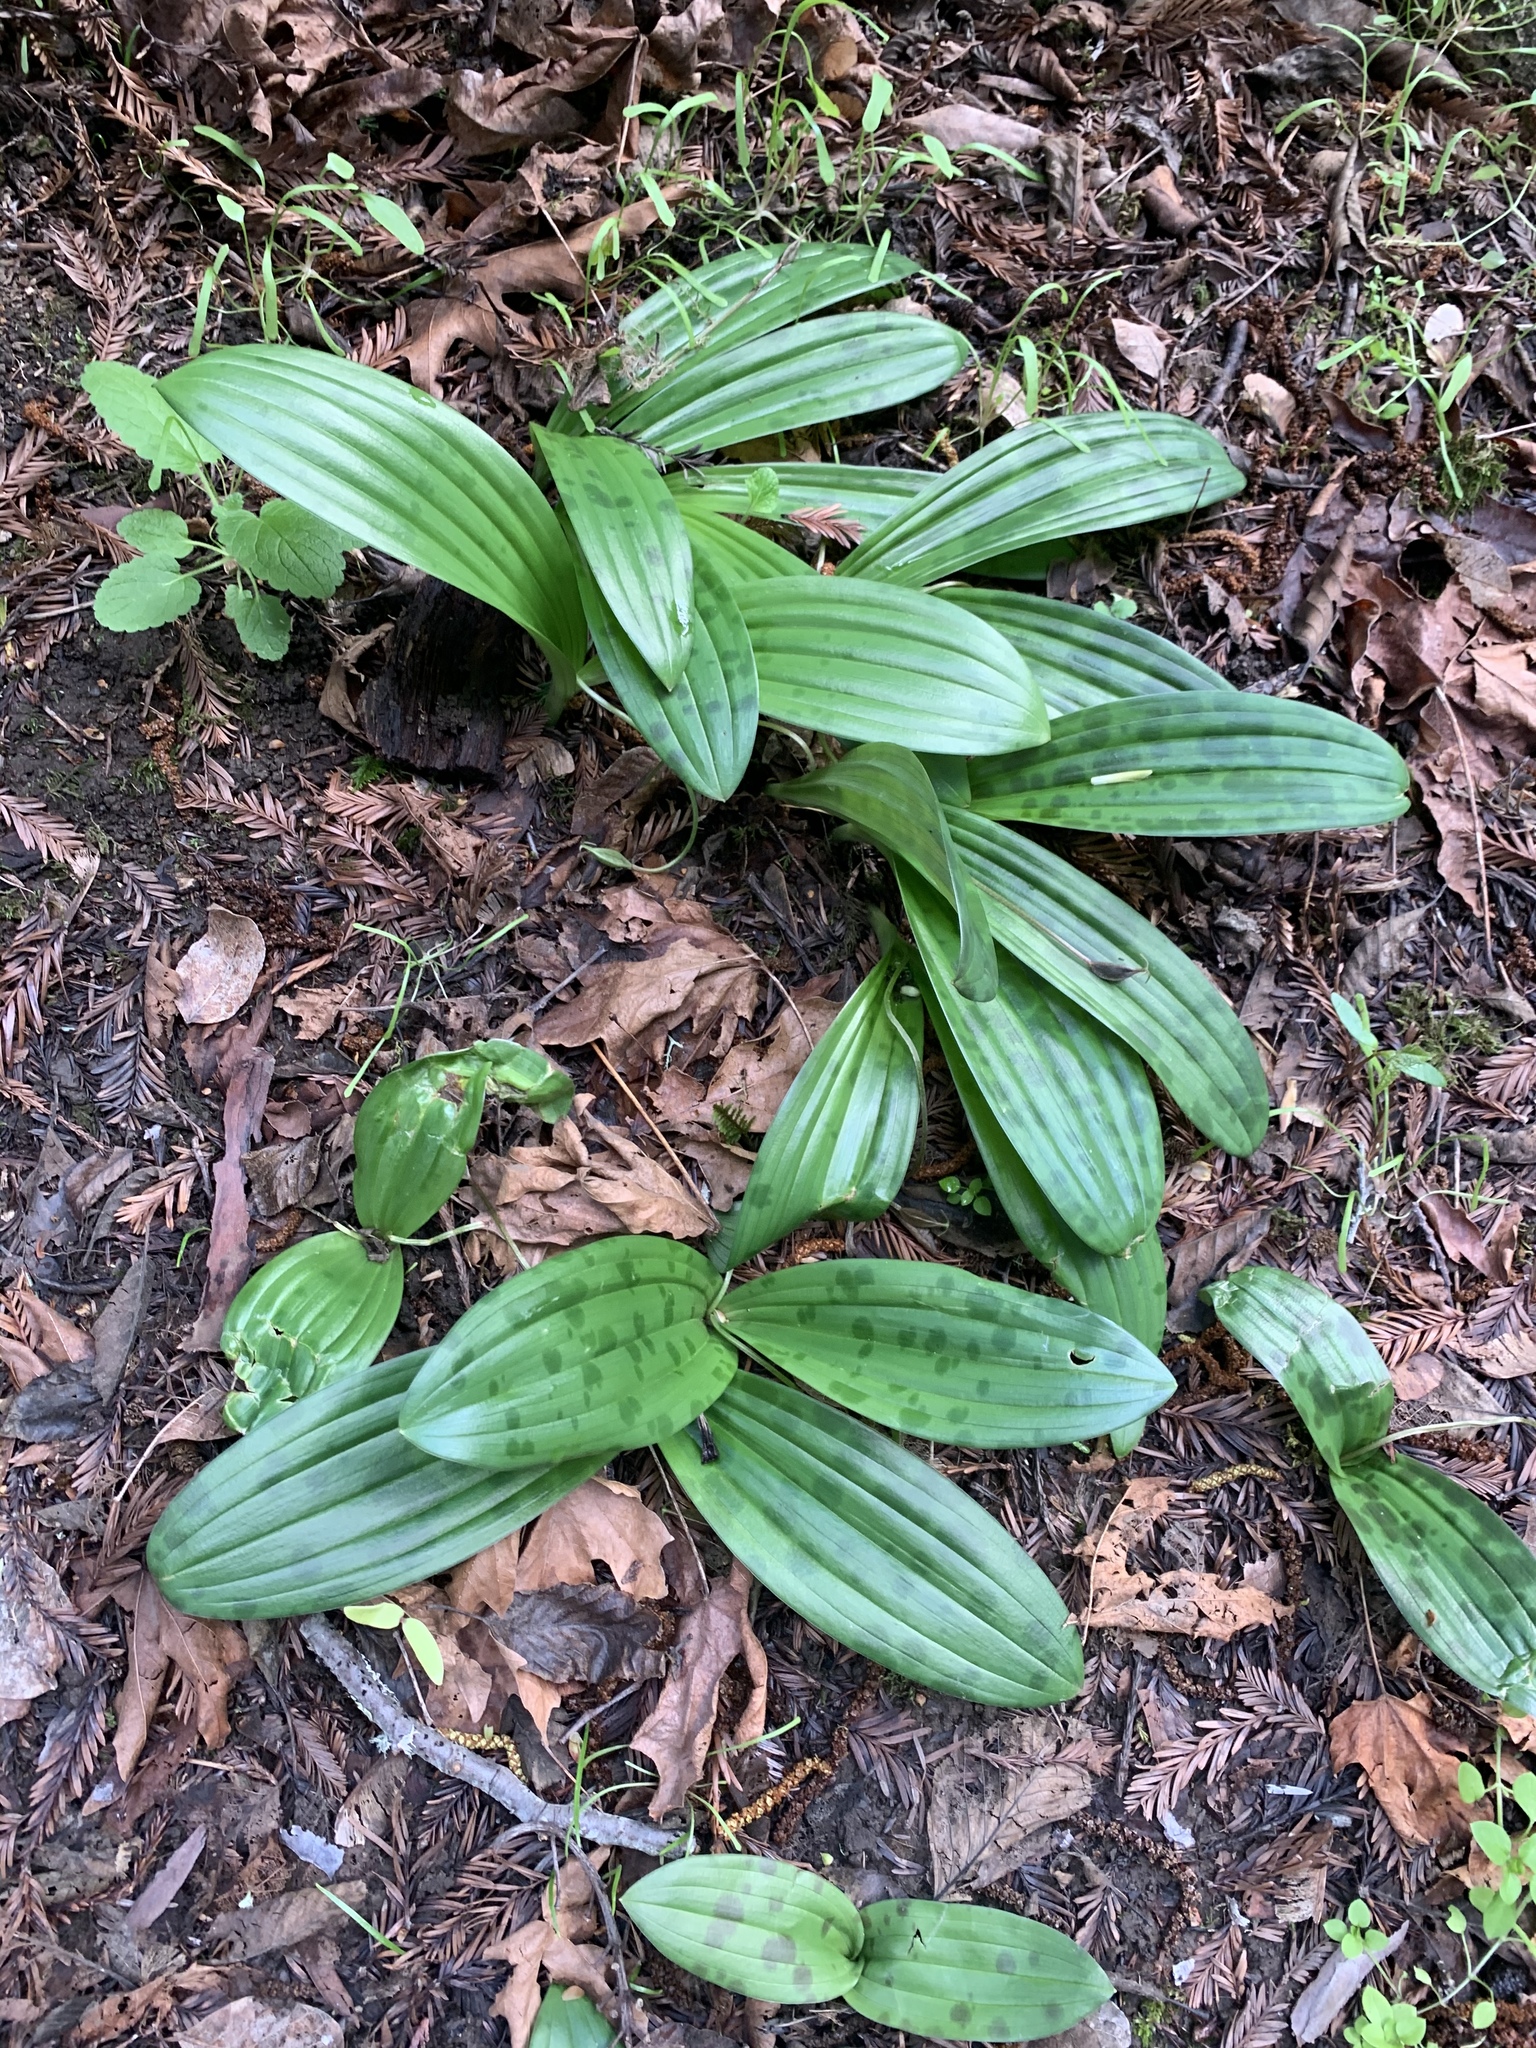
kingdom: Plantae
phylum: Tracheophyta
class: Liliopsida
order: Liliales
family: Liliaceae
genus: Scoliopus
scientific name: Scoliopus bigelovii
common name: Foetid adder's-tongue
